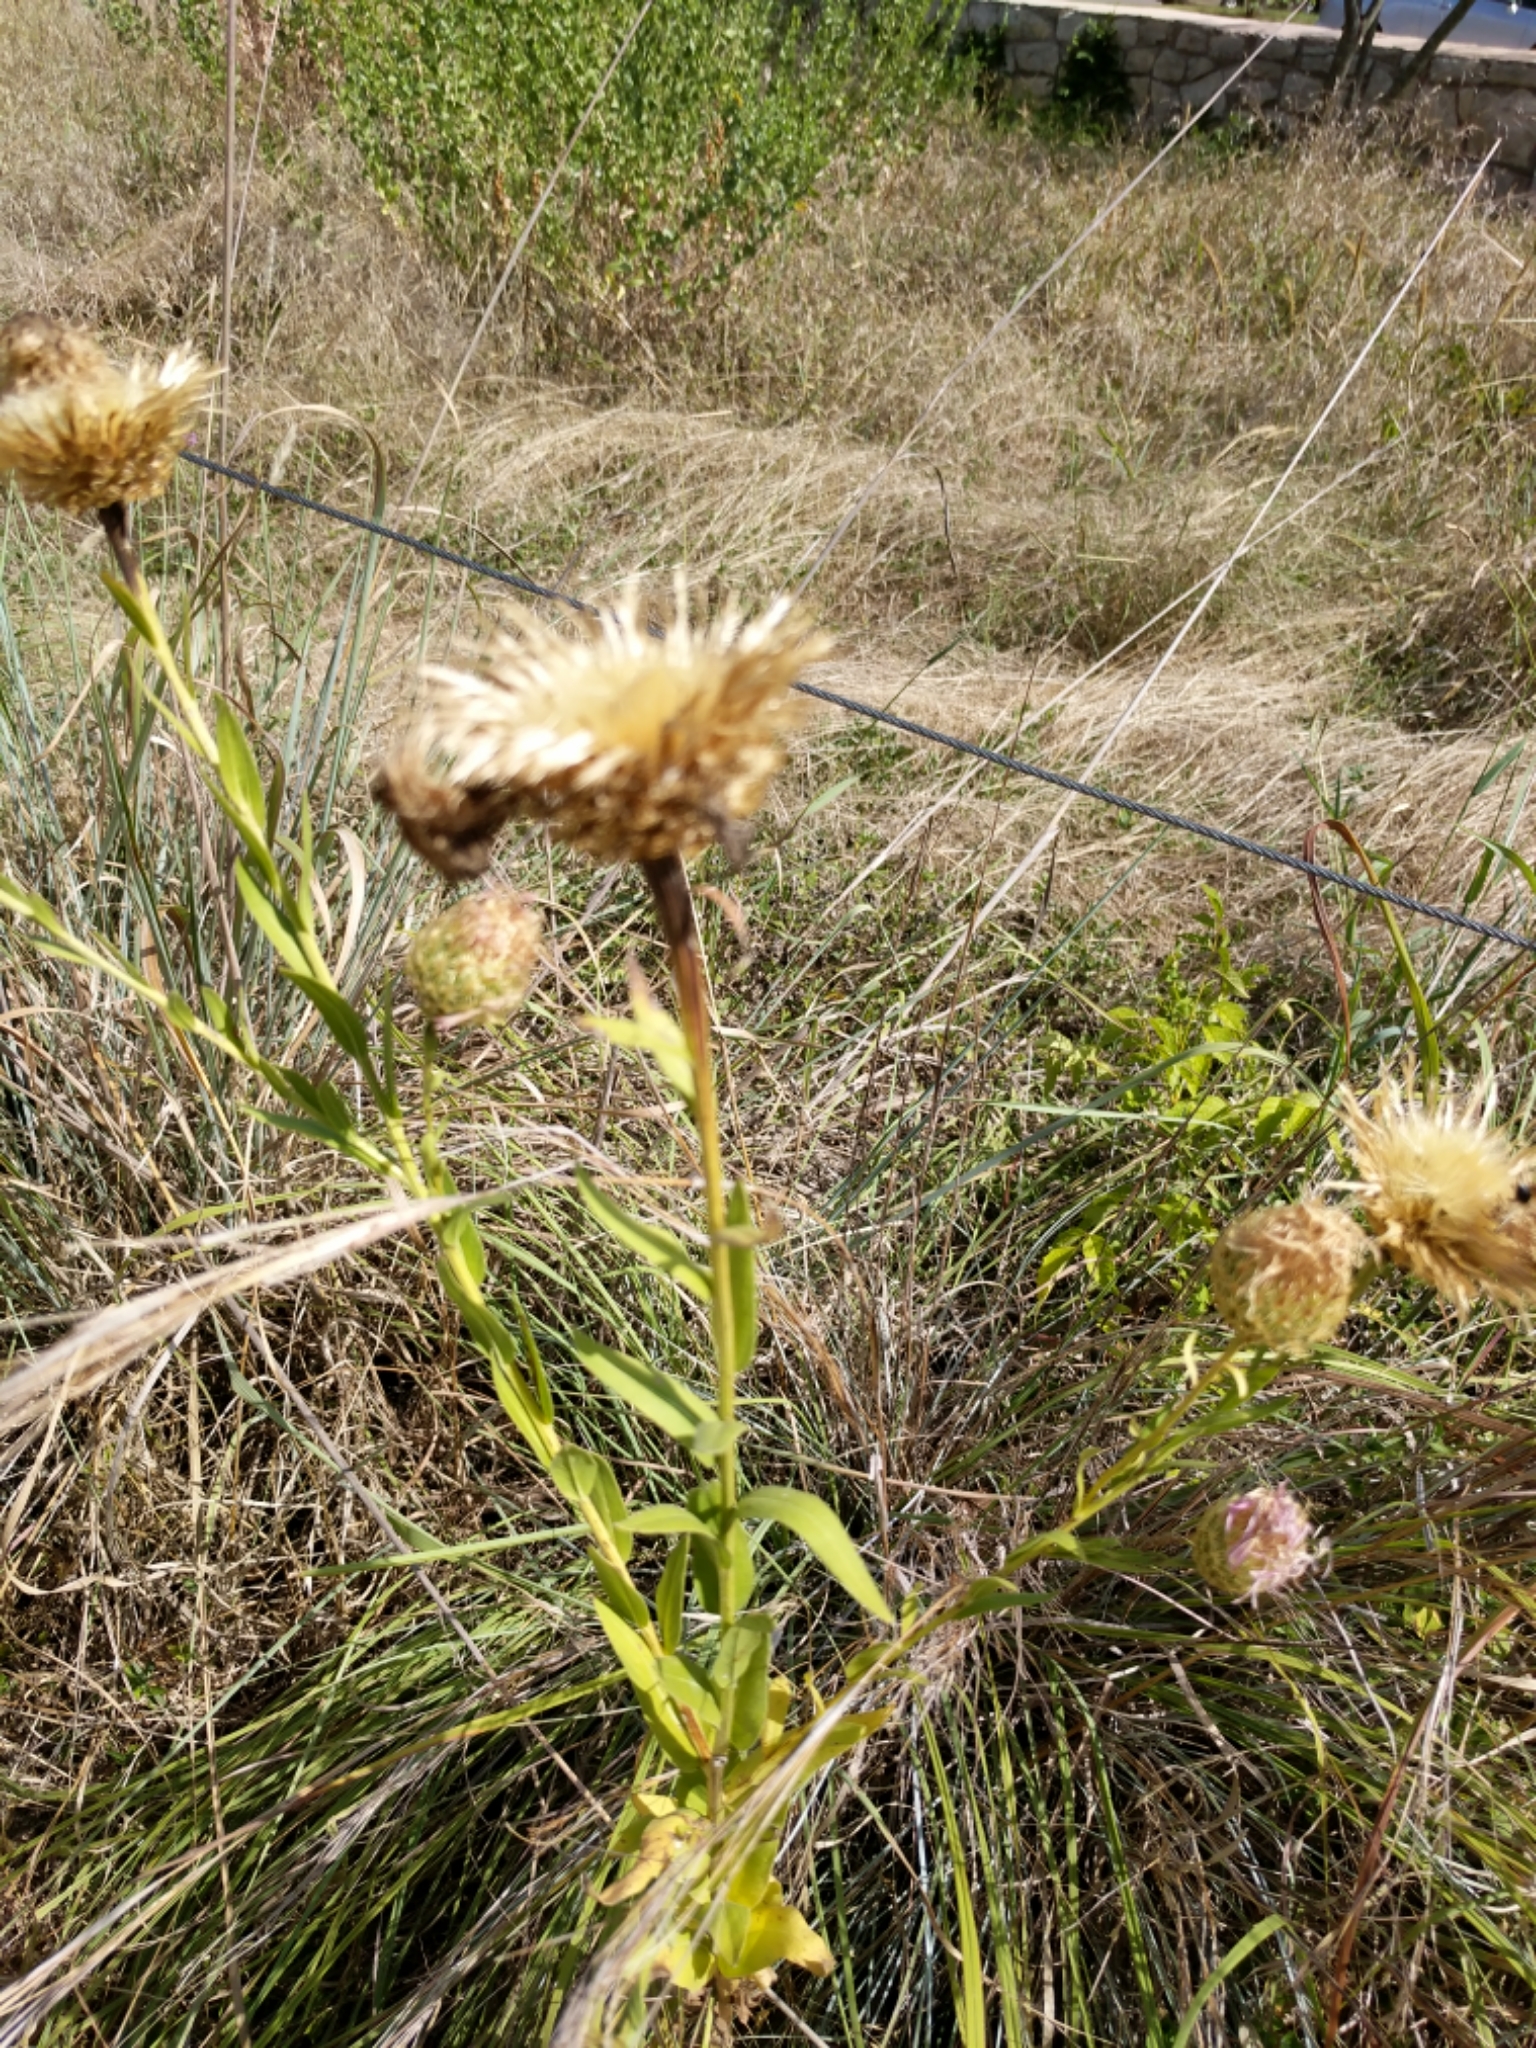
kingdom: Plantae
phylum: Tracheophyta
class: Magnoliopsida
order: Asterales
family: Asteraceae
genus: Plectocephalus
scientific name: Plectocephalus americanus
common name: American basket-flower
